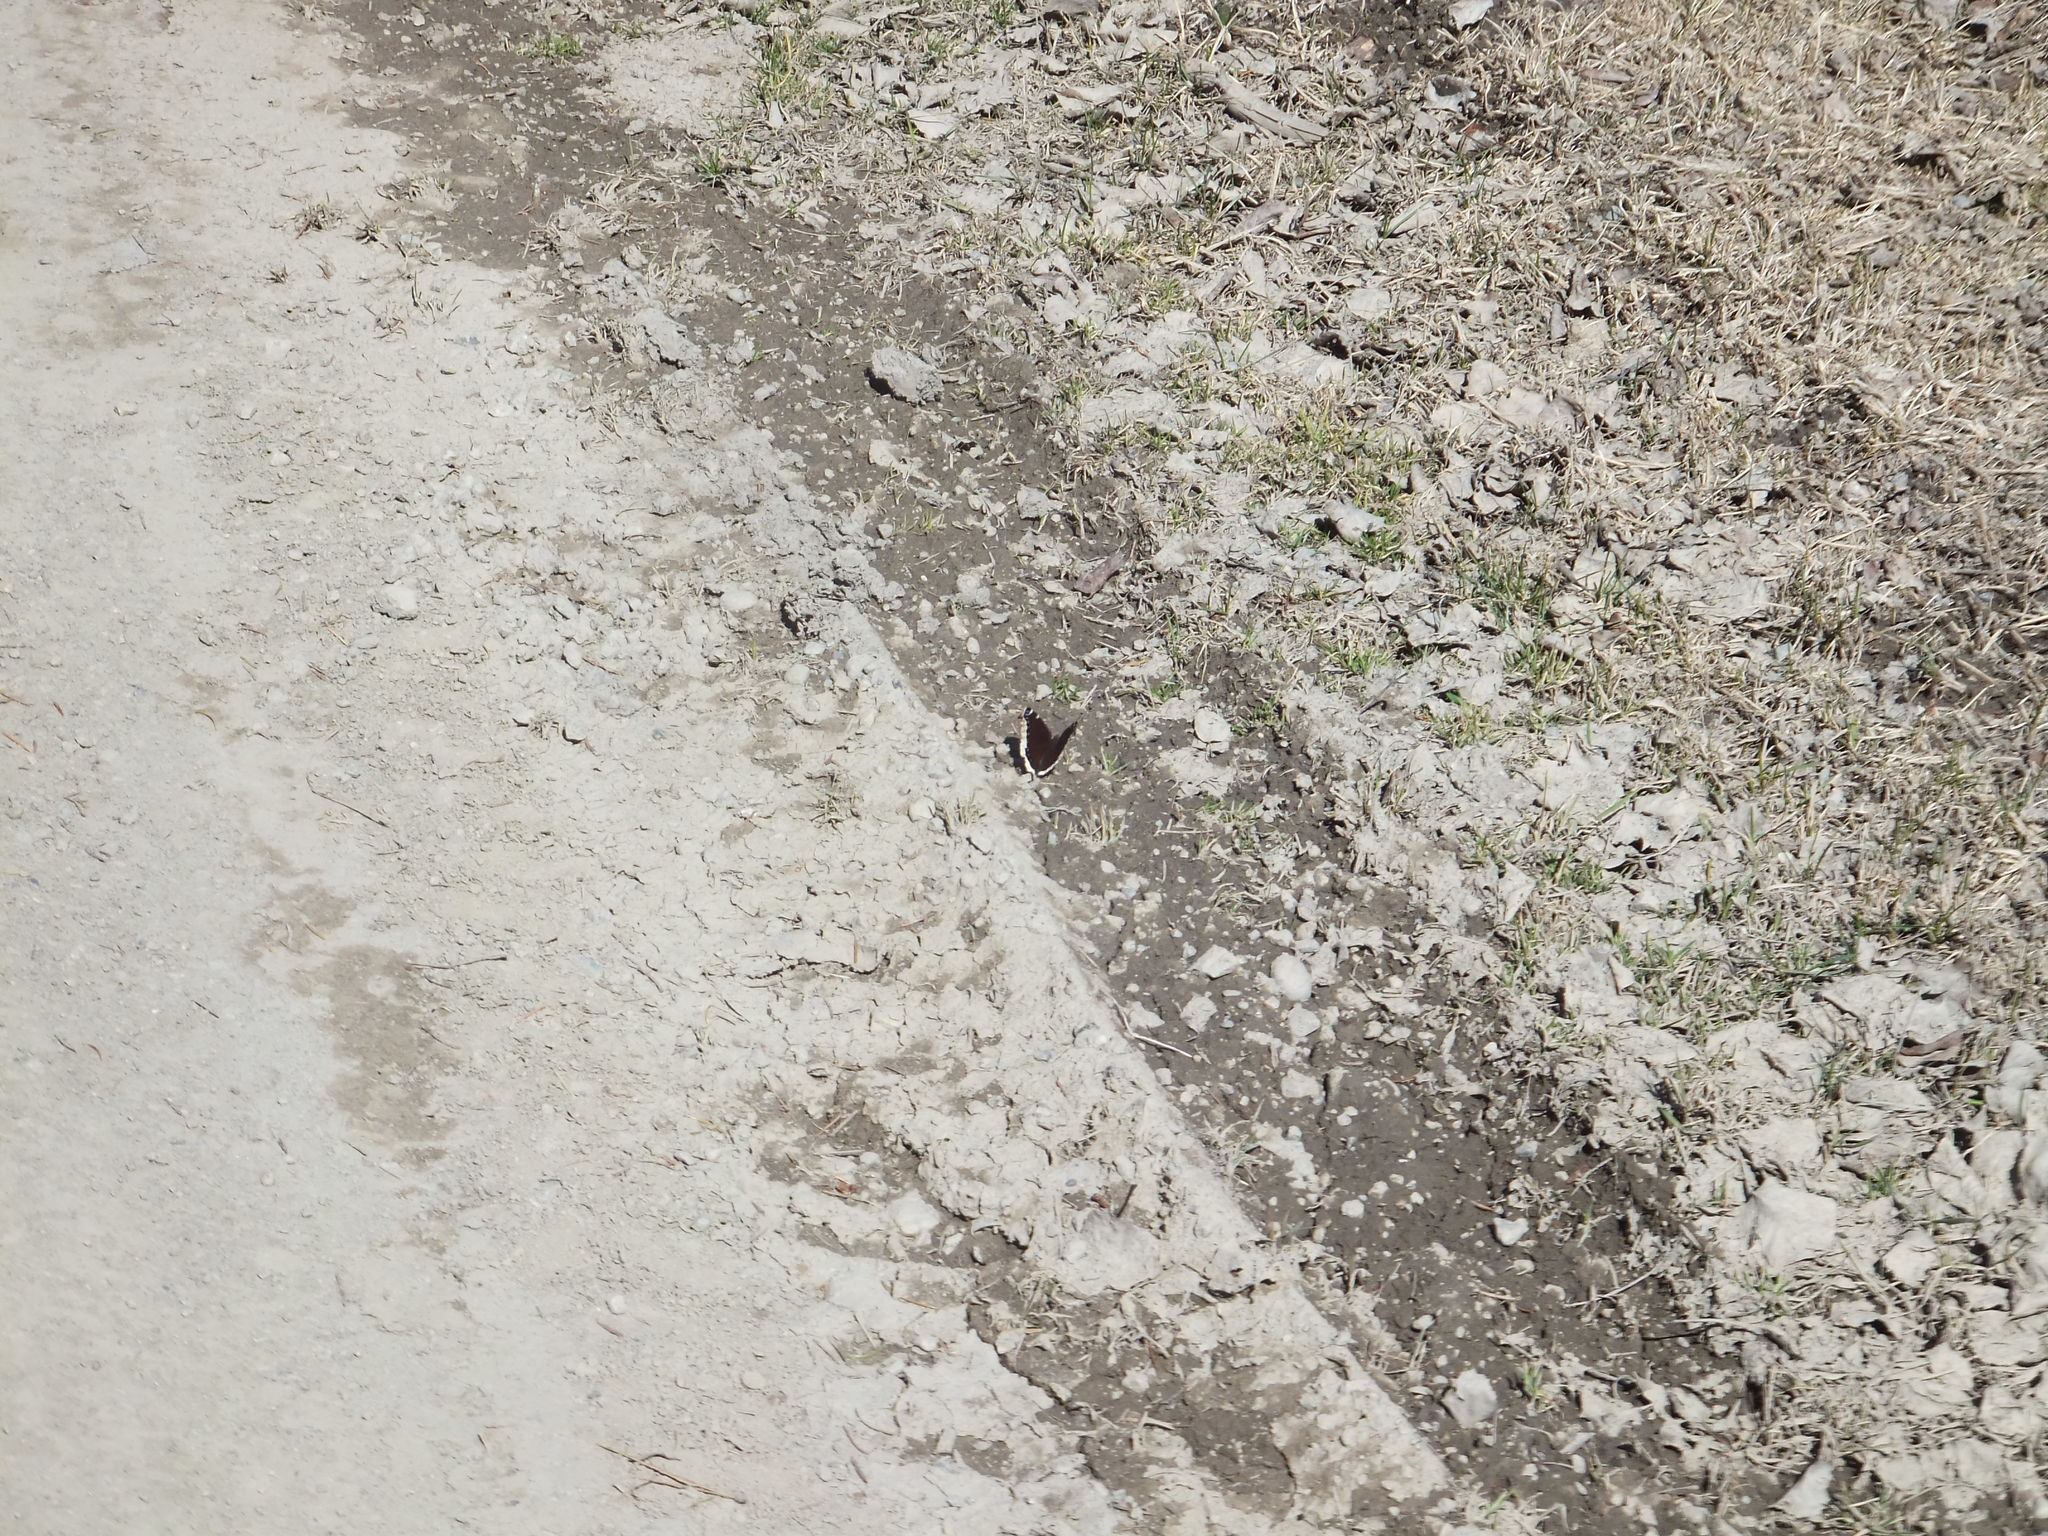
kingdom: Animalia
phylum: Arthropoda
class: Insecta
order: Lepidoptera
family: Nymphalidae
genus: Nymphalis
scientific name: Nymphalis antiopa
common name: Camberwell beauty
